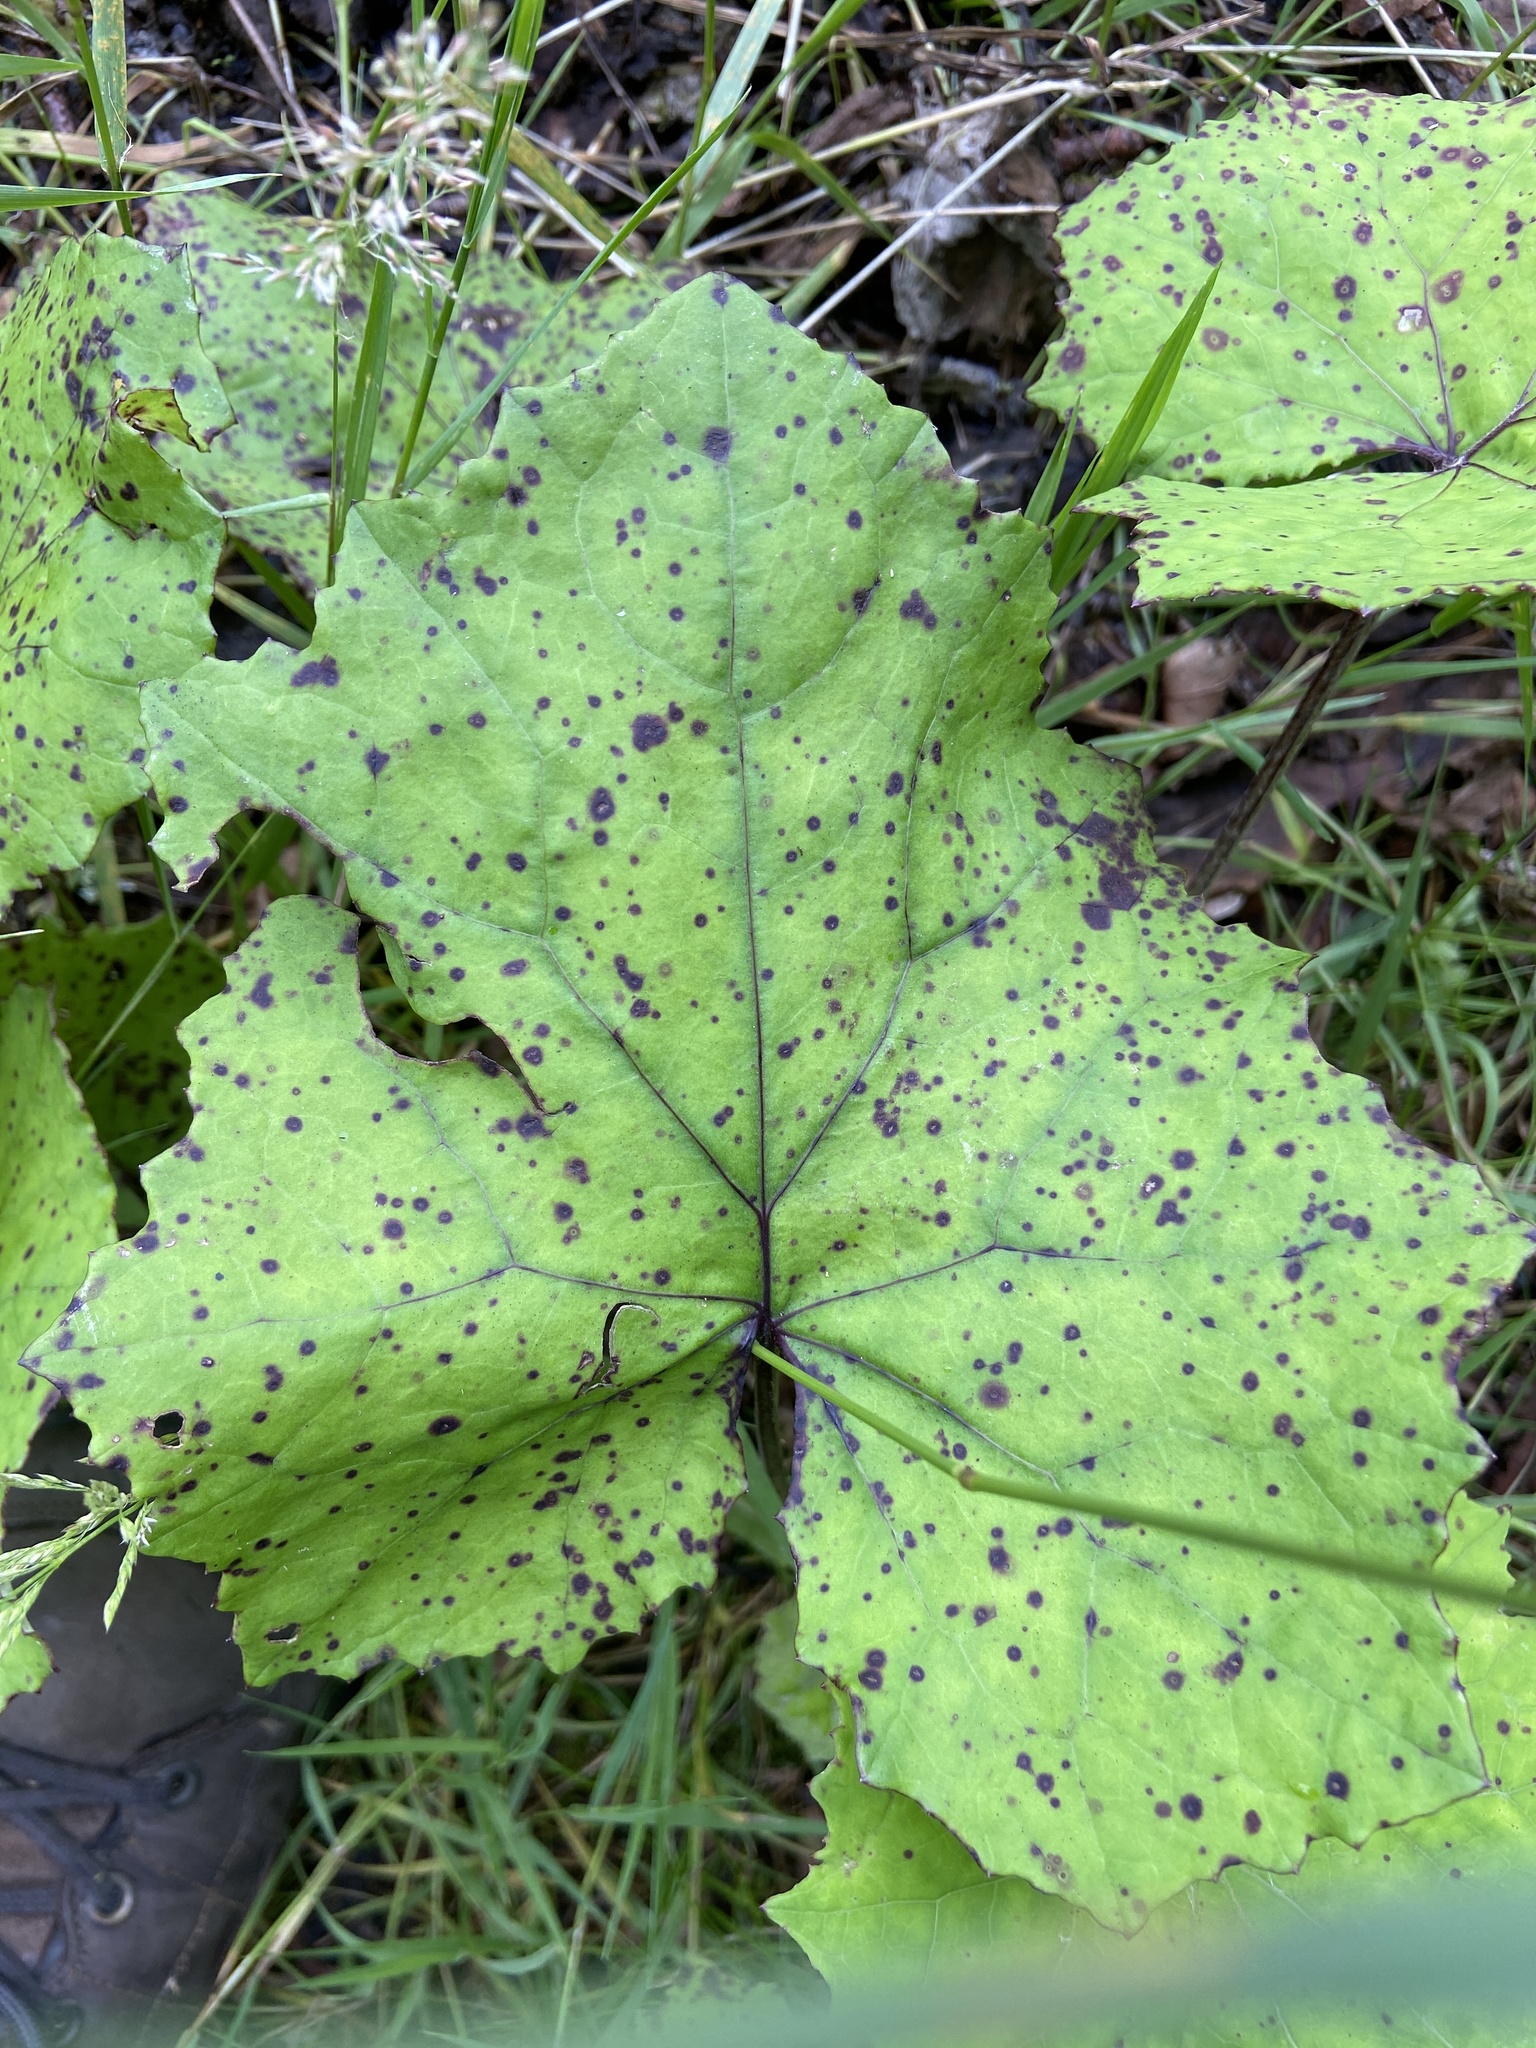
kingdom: Plantae
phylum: Tracheophyta
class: Magnoliopsida
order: Asterales
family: Asteraceae
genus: Tussilago
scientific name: Tussilago farfara
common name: Coltsfoot
